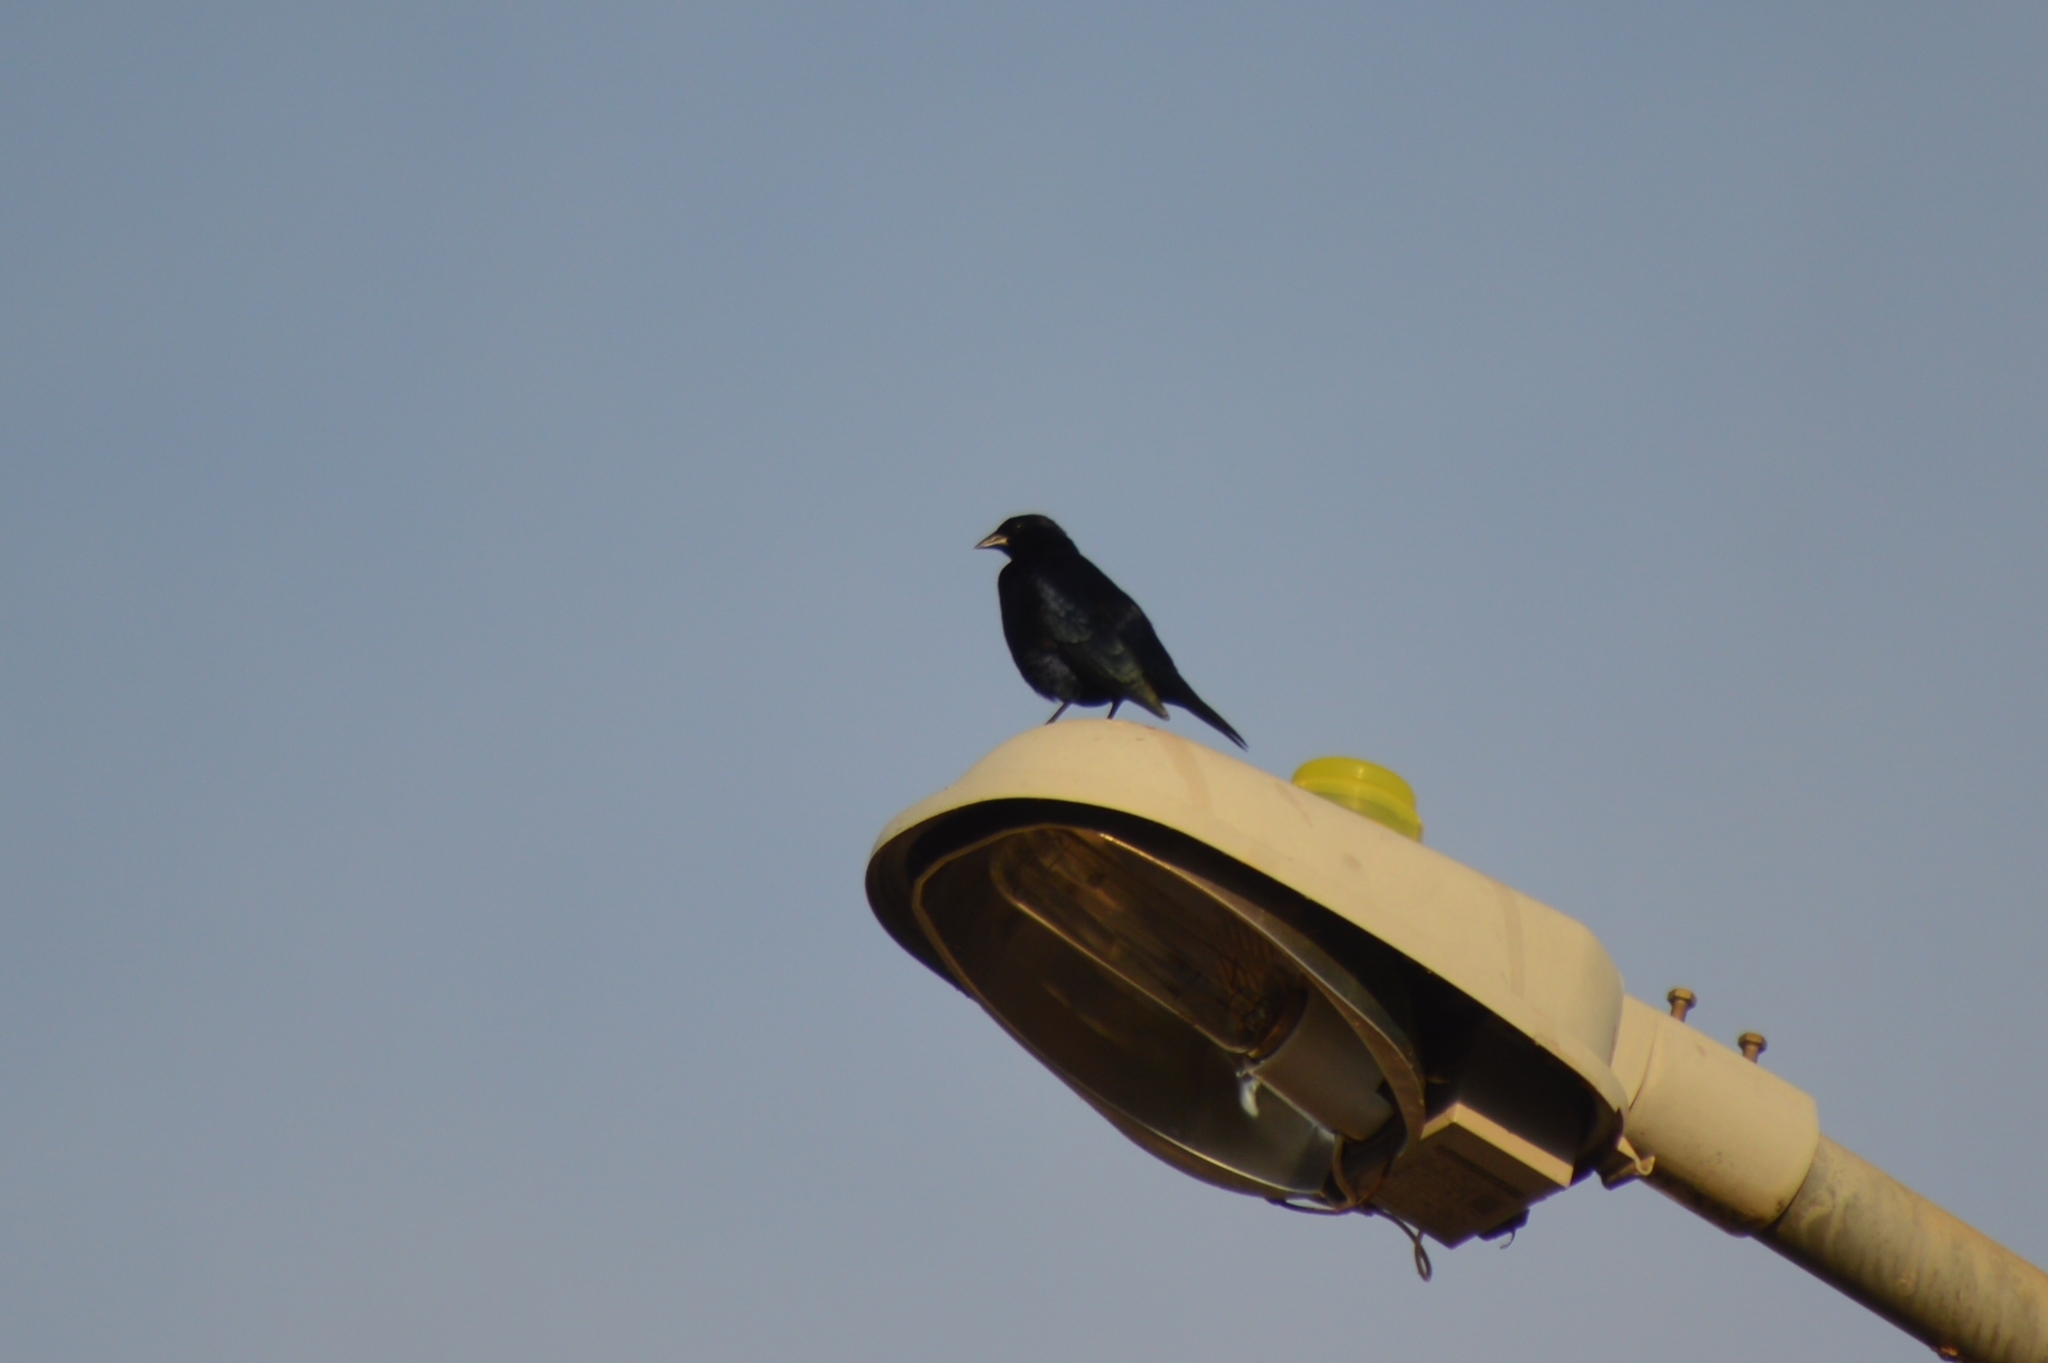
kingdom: Animalia
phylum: Chordata
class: Aves
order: Passeriformes
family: Icteridae
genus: Gnorimopsar
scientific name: Gnorimopsar chopi
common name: Chopi blackbird
